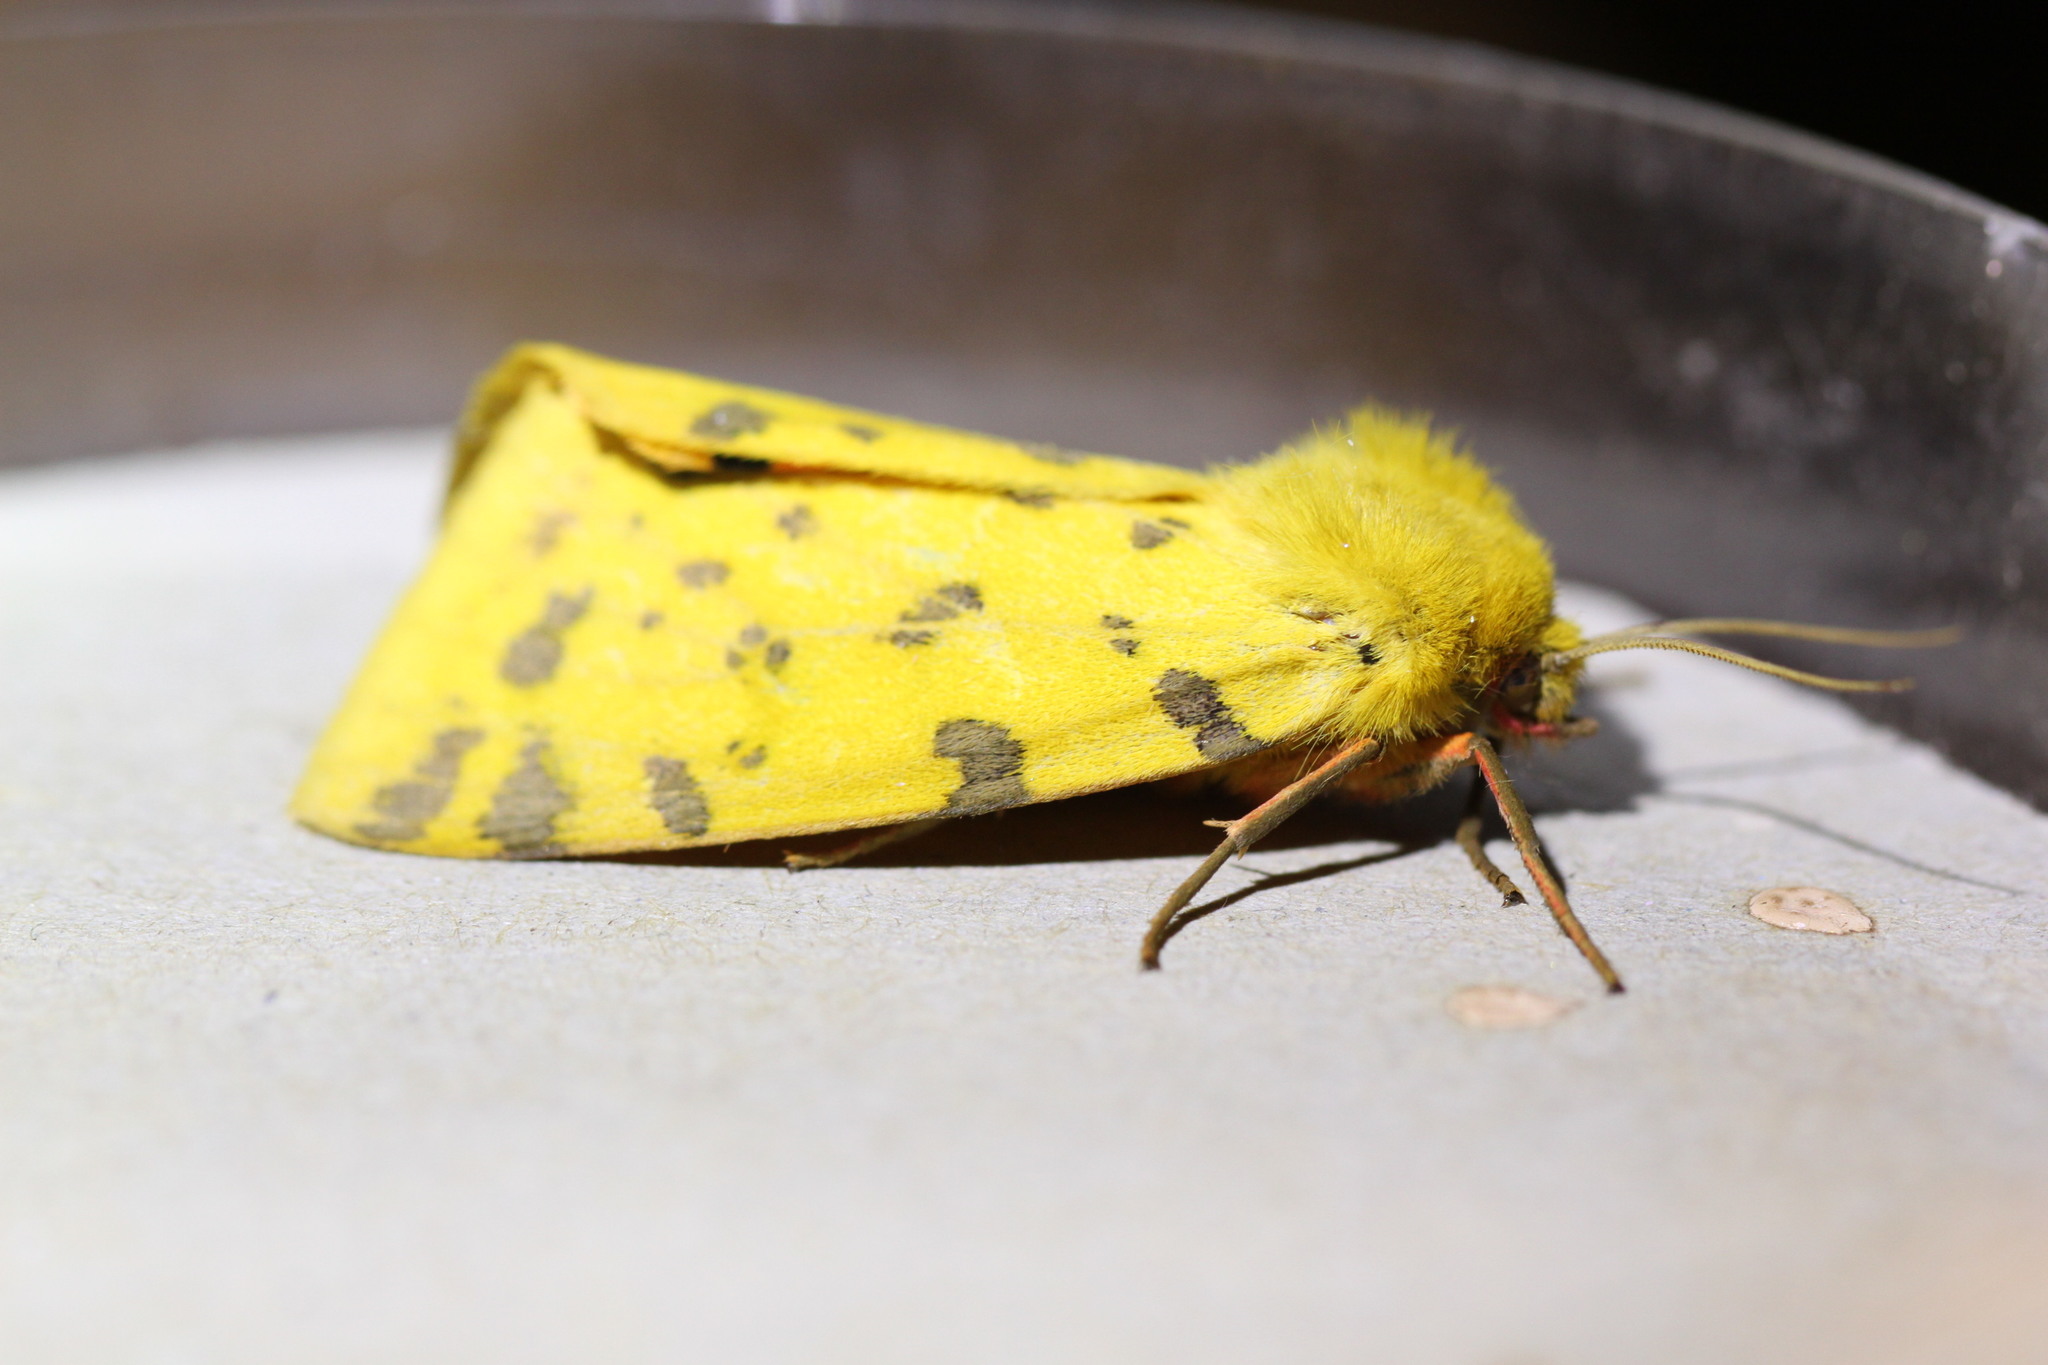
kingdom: Animalia
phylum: Arthropoda
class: Insecta
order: Lepidoptera
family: Erebidae
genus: Rhyparia
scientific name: Rhyparia purpurata
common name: Purple tiger
